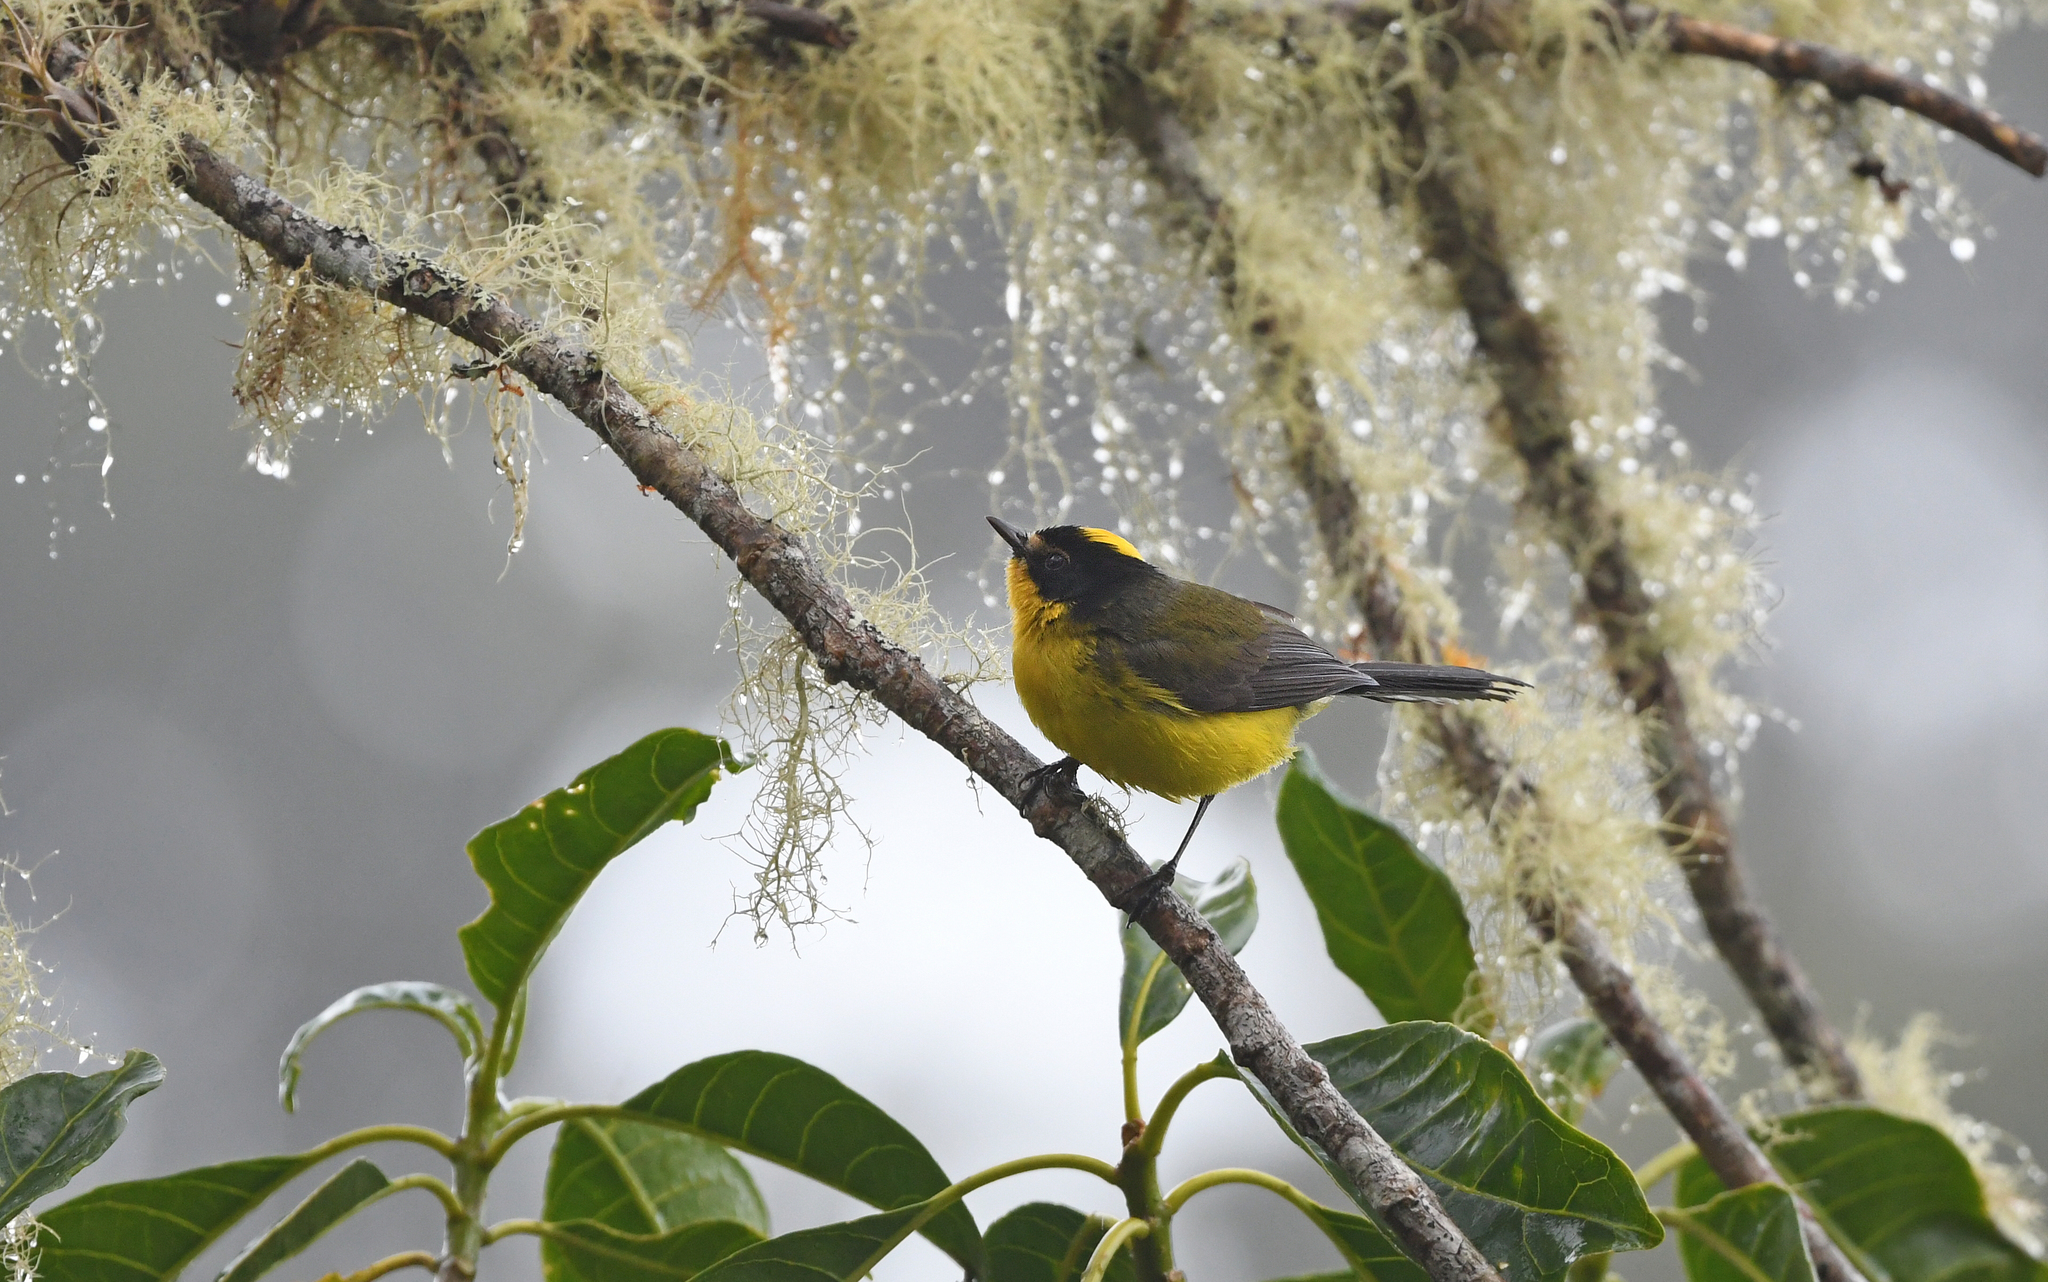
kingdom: Animalia
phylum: Chordata
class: Aves
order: Passeriformes
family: Parulidae
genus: Myioborus
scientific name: Myioborus flavivertex
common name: Yellow-crowned whitestart
